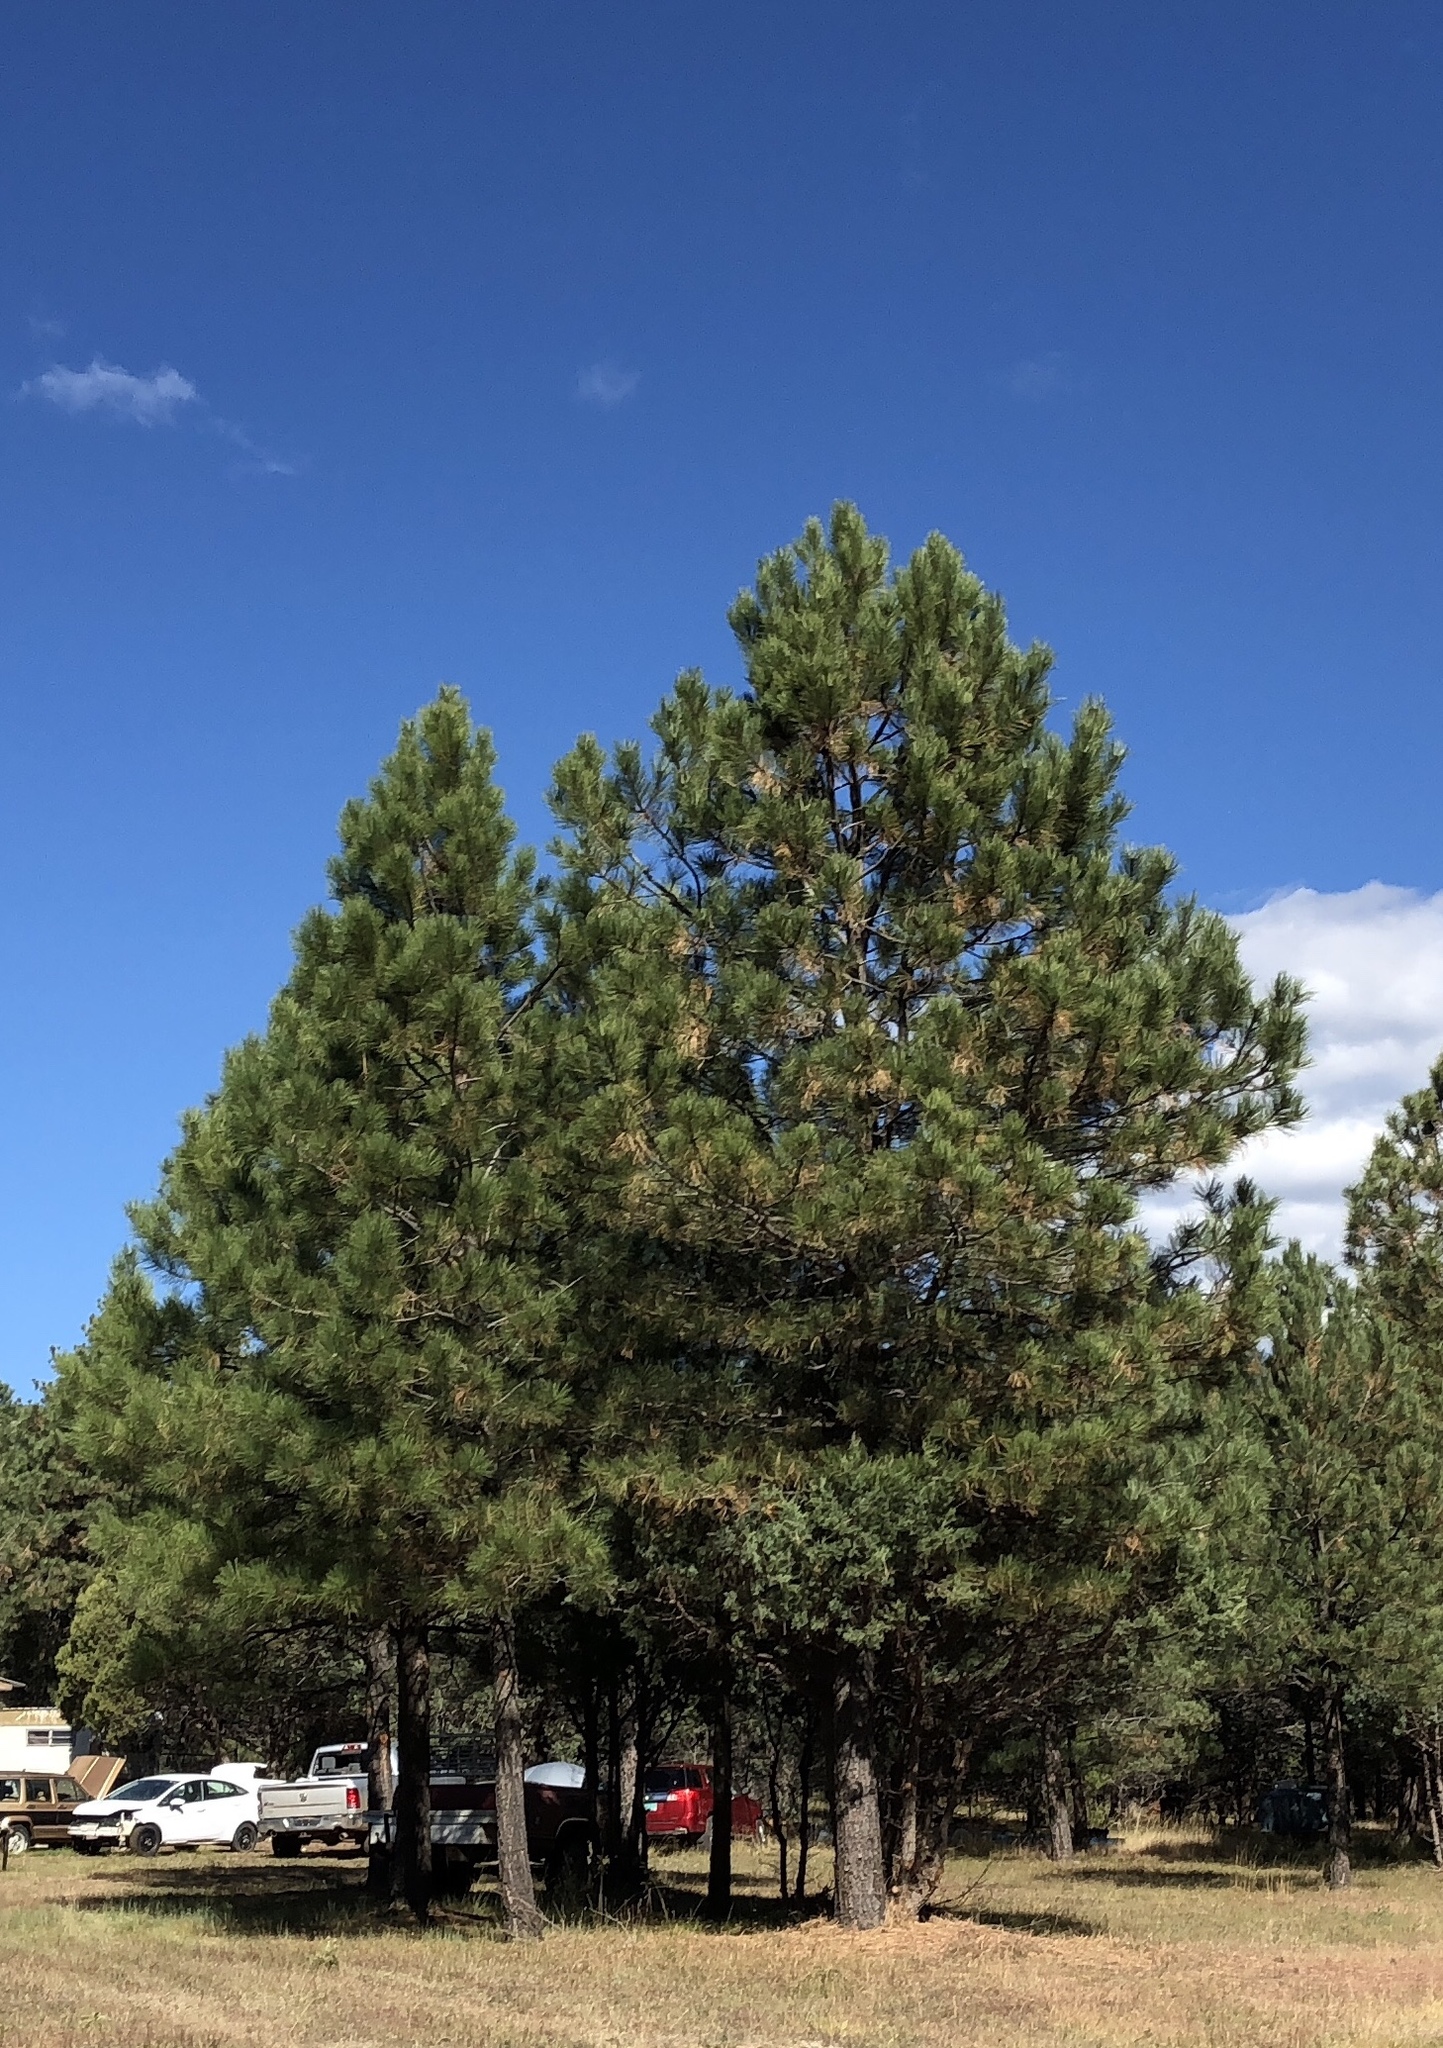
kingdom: Plantae
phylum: Tracheophyta
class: Pinopsida
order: Pinales
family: Pinaceae
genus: Pinus
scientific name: Pinus ponderosa
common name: Western yellow-pine
